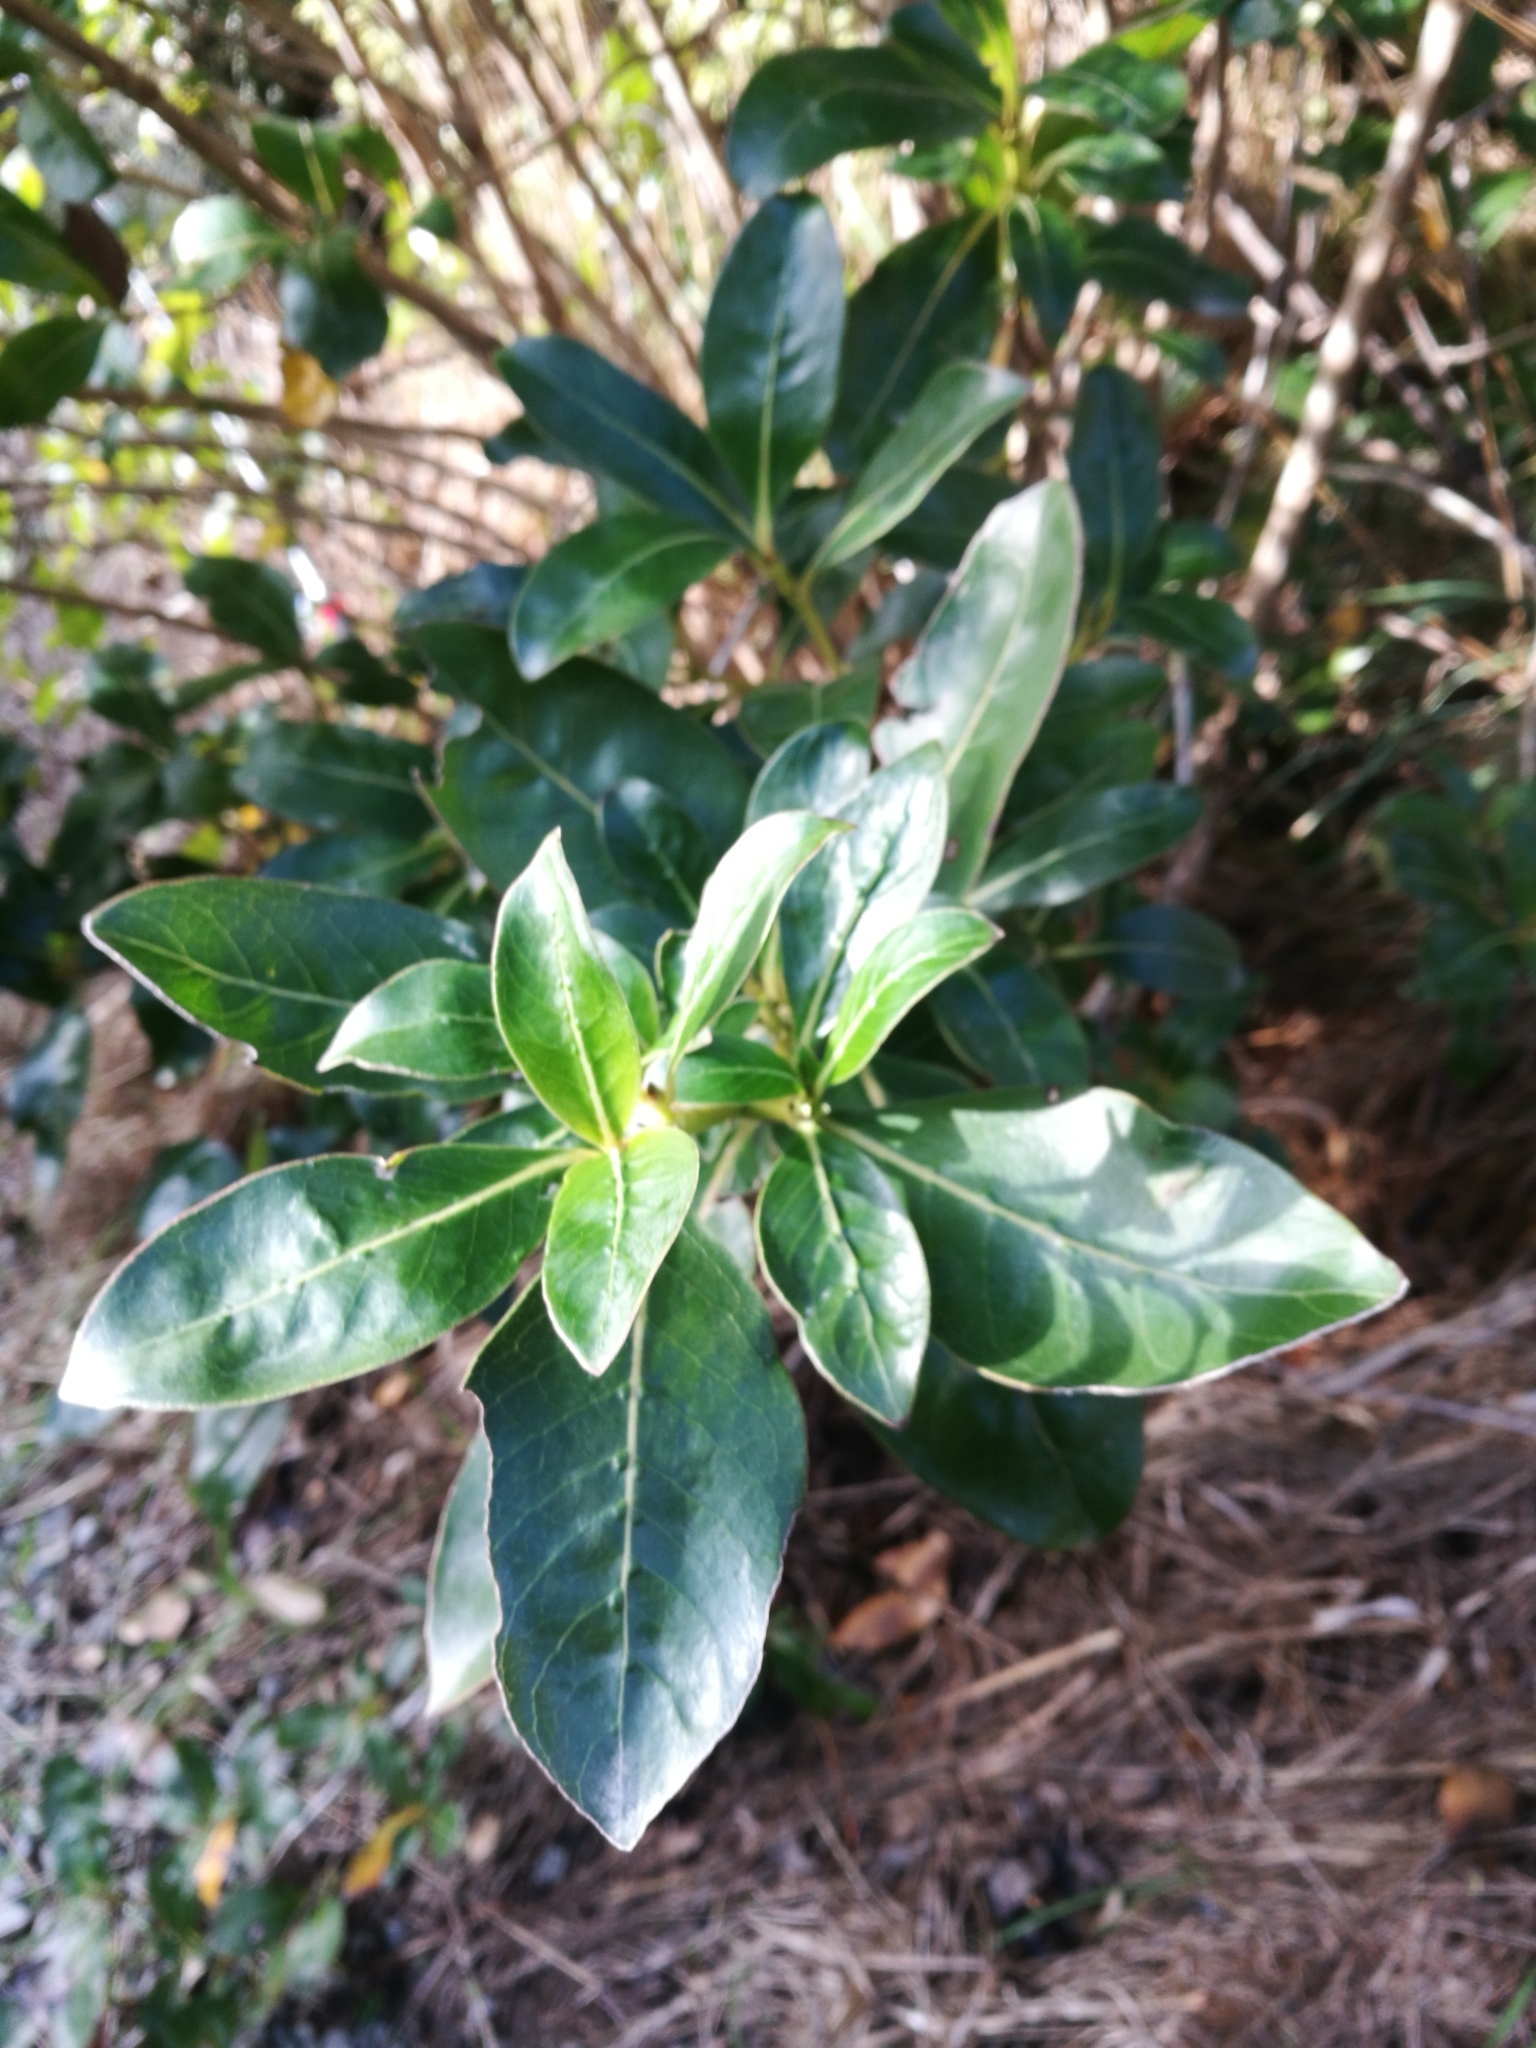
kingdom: Plantae
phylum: Tracheophyta
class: Magnoliopsida
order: Gentianales
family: Rubiaceae
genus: Coprosma
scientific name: Coprosma robusta
